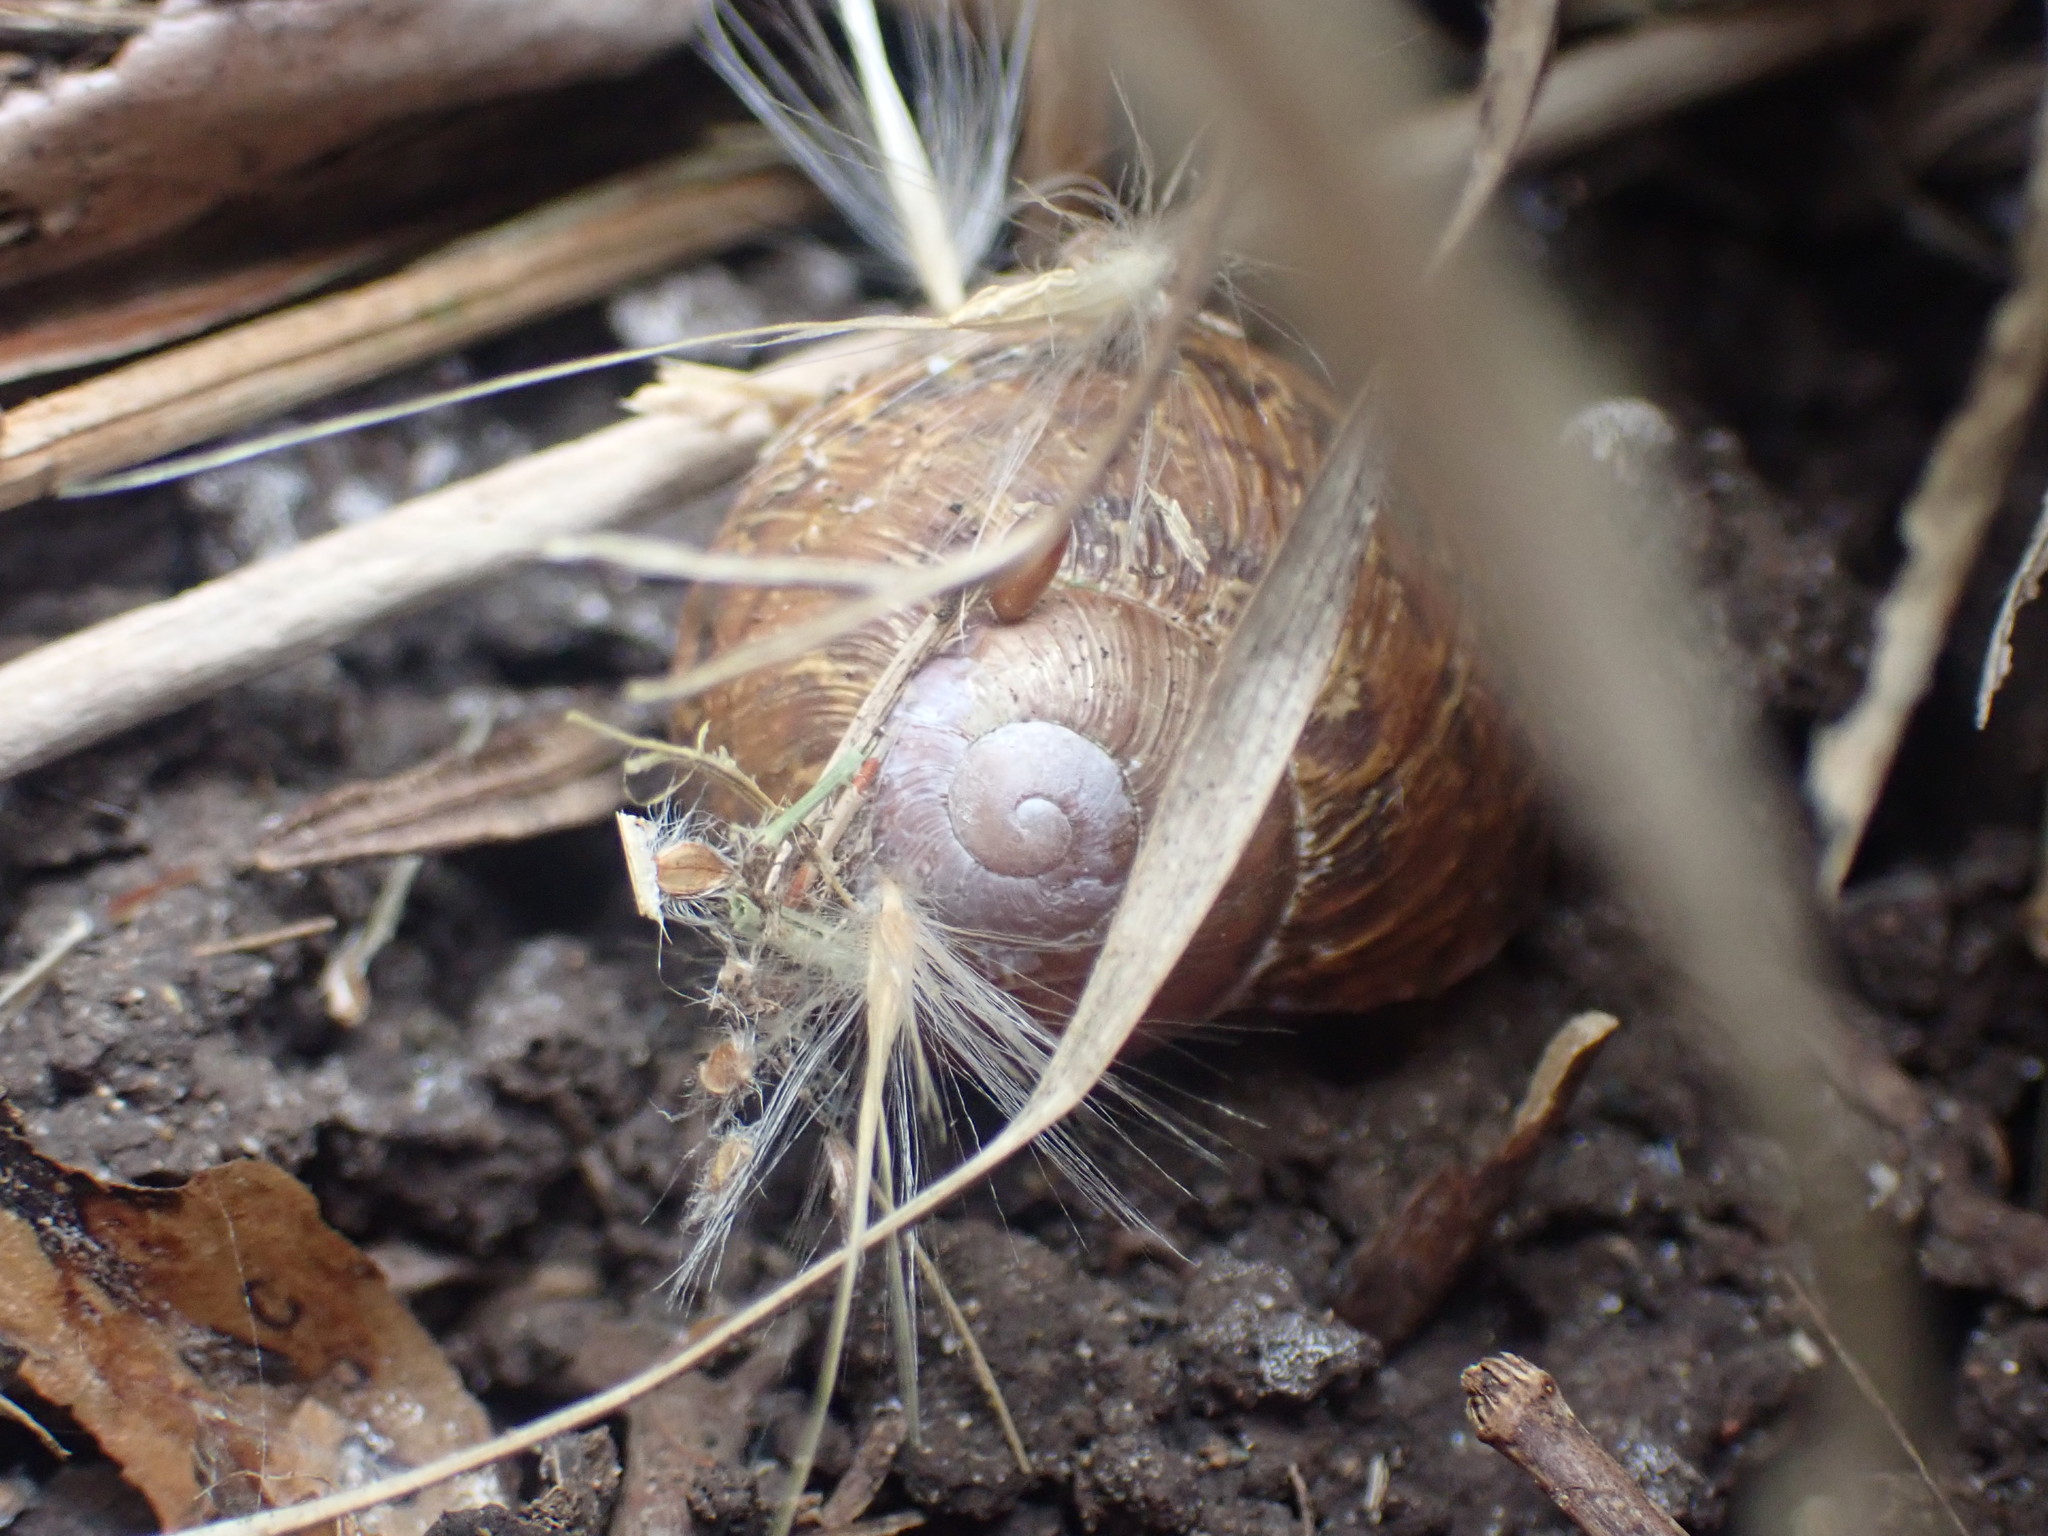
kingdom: Animalia
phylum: Mollusca
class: Gastropoda
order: Stylommatophora
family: Helicidae
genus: Cornu
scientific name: Cornu aspersum
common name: Brown garden snail
